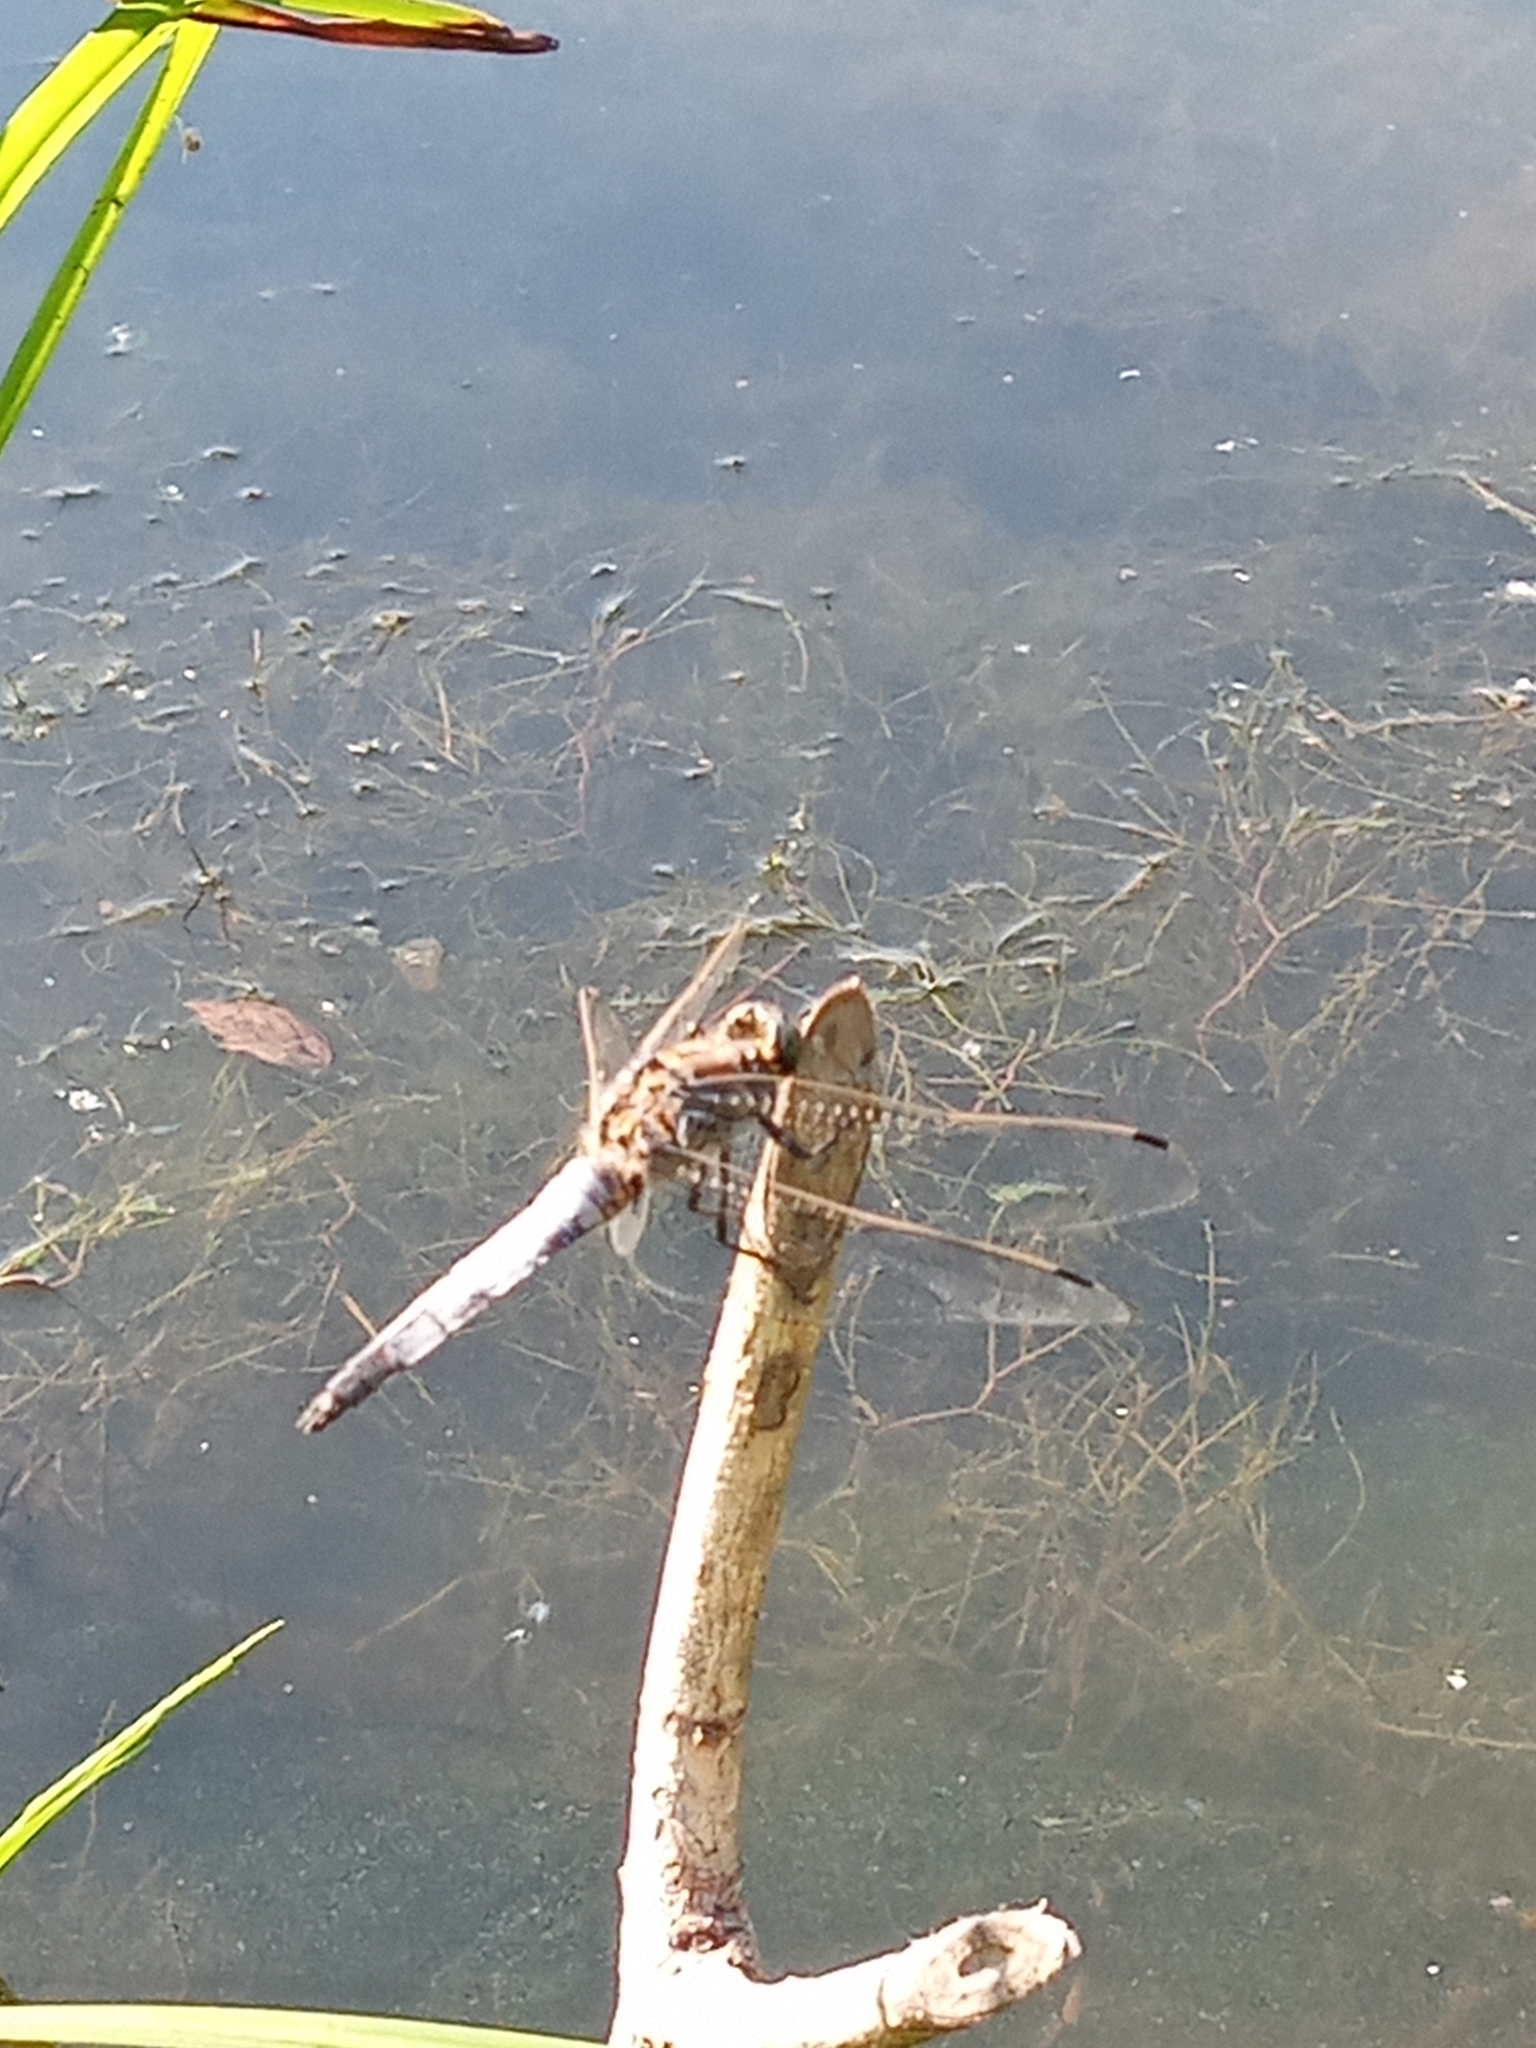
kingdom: Animalia
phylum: Arthropoda
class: Insecta
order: Odonata
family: Libellulidae
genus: Orthetrum
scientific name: Orthetrum cancellatum
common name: Black-tailed skimmer
